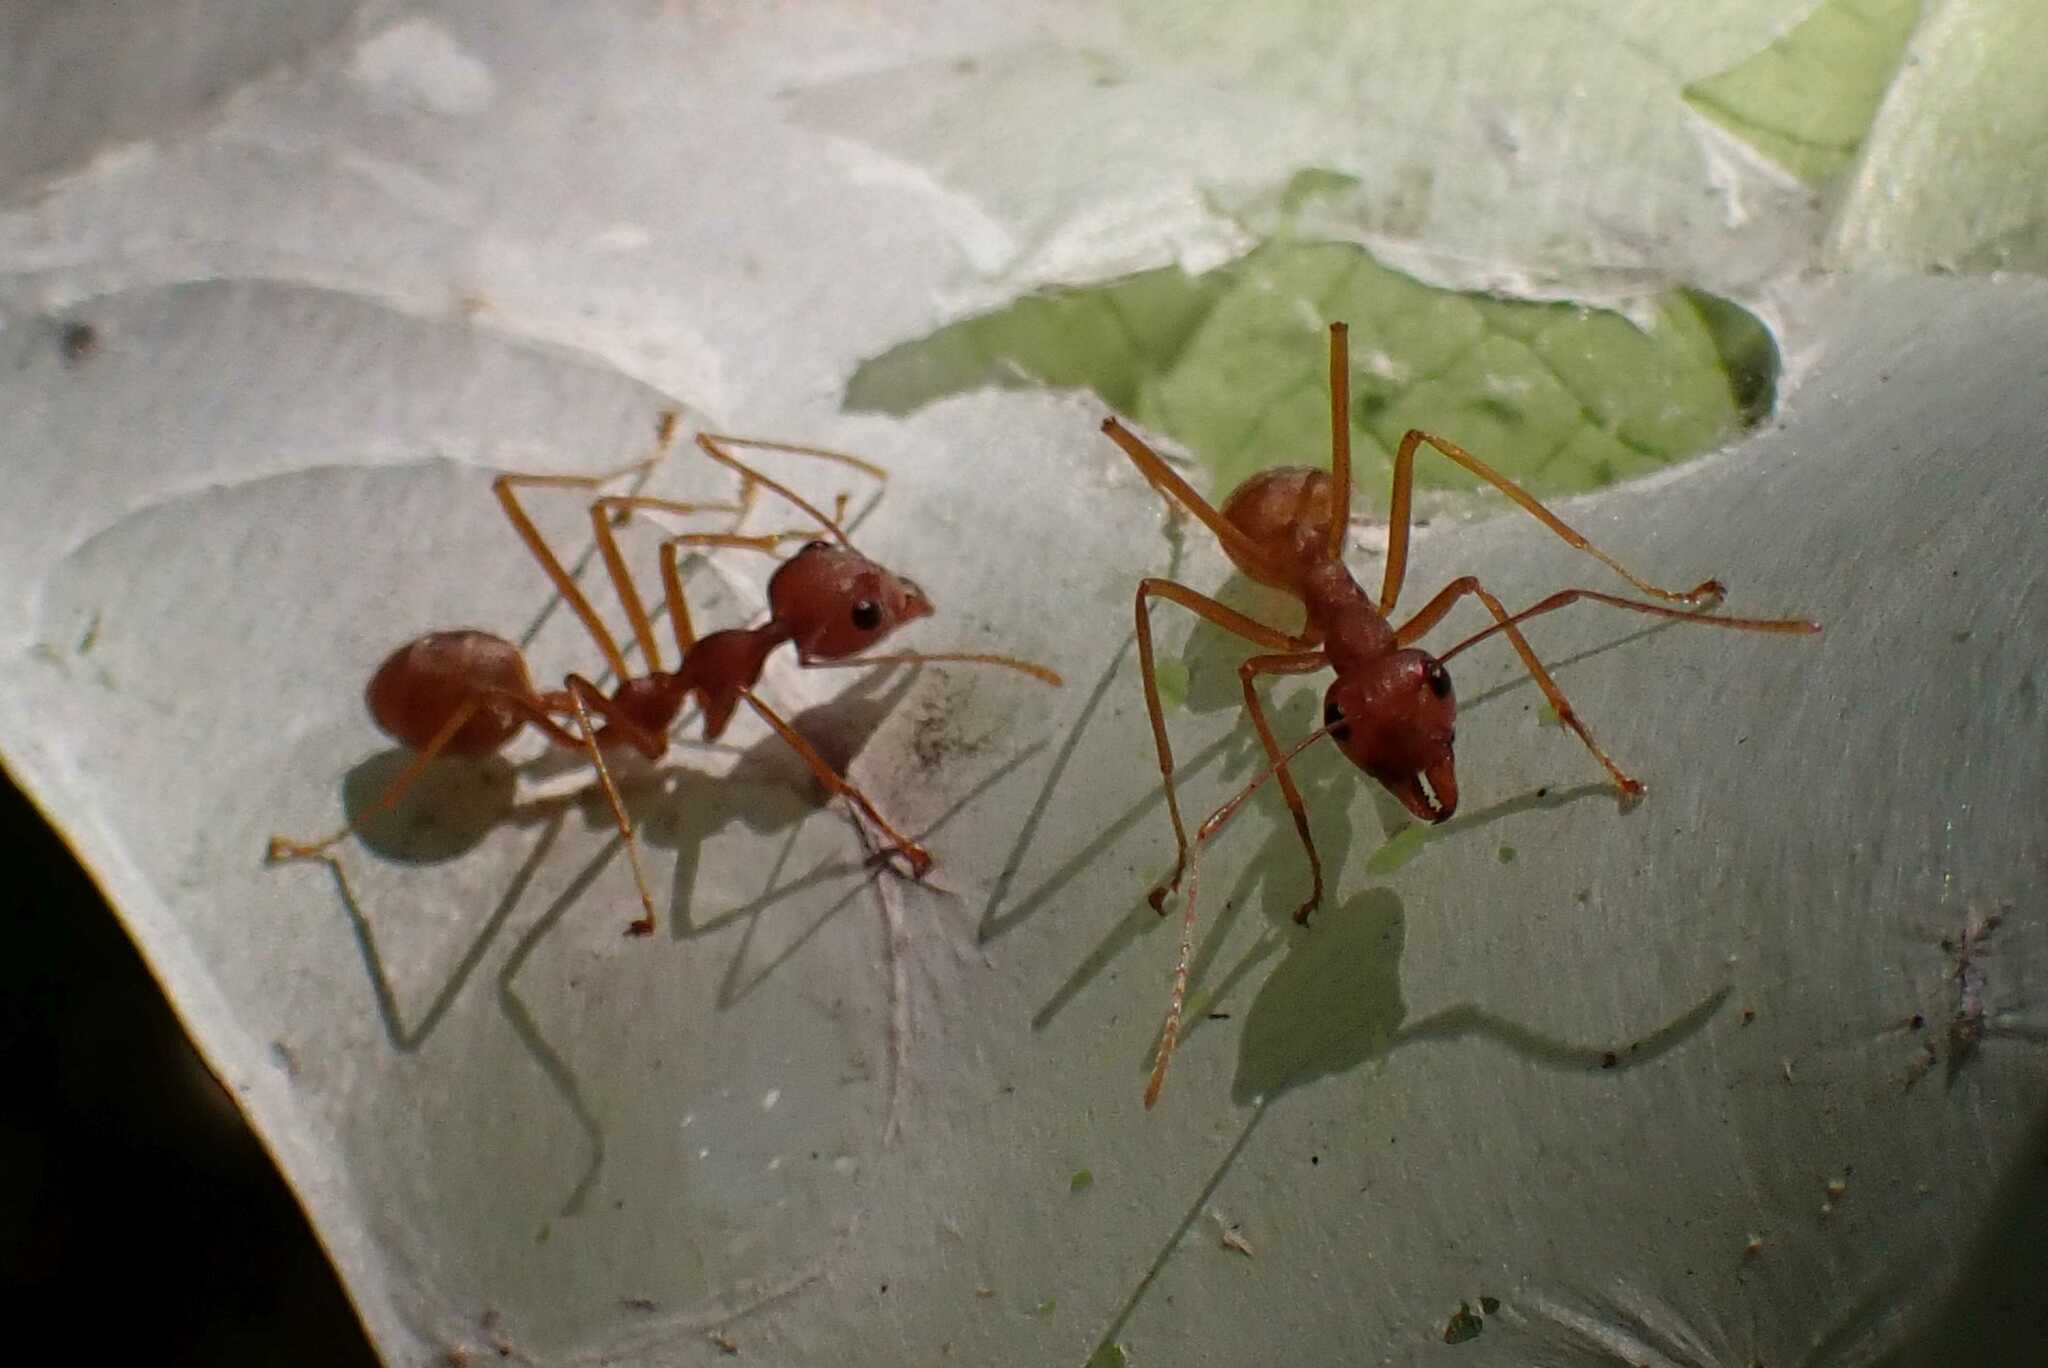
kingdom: Animalia
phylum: Arthropoda
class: Insecta
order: Hymenoptera
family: Formicidae
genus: Oecophylla
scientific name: Oecophylla longinoda
